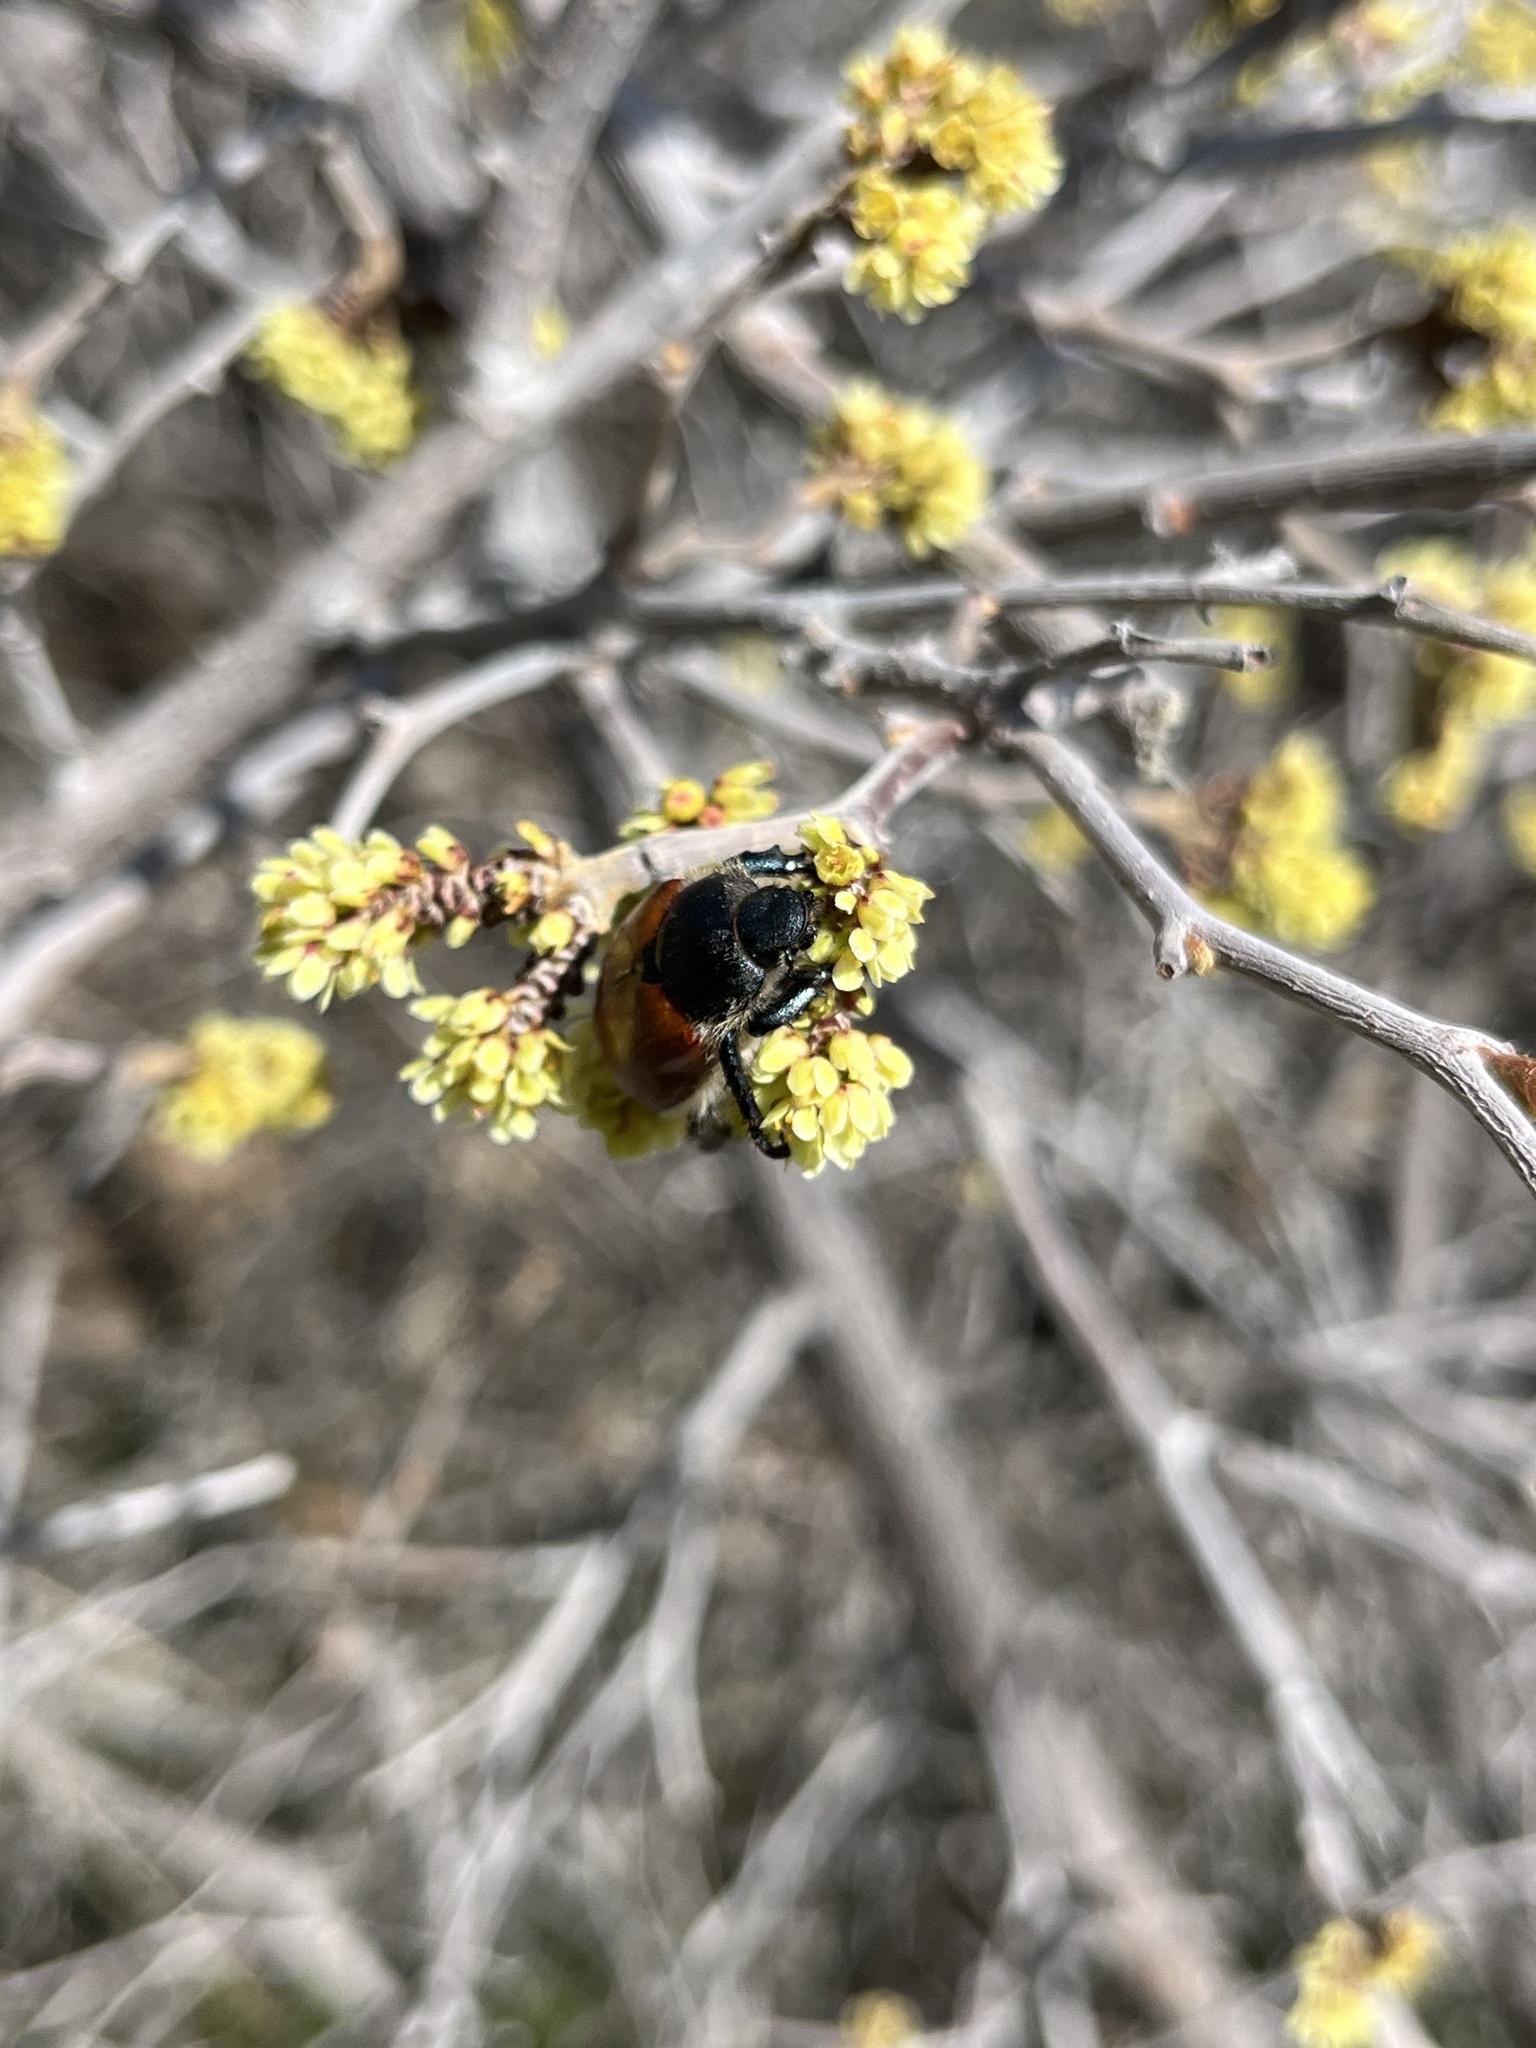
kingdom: Animalia
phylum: Arthropoda
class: Insecta
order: Coleoptera
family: Scarabaeidae
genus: Paracotalpa
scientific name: Paracotalpa ursina
